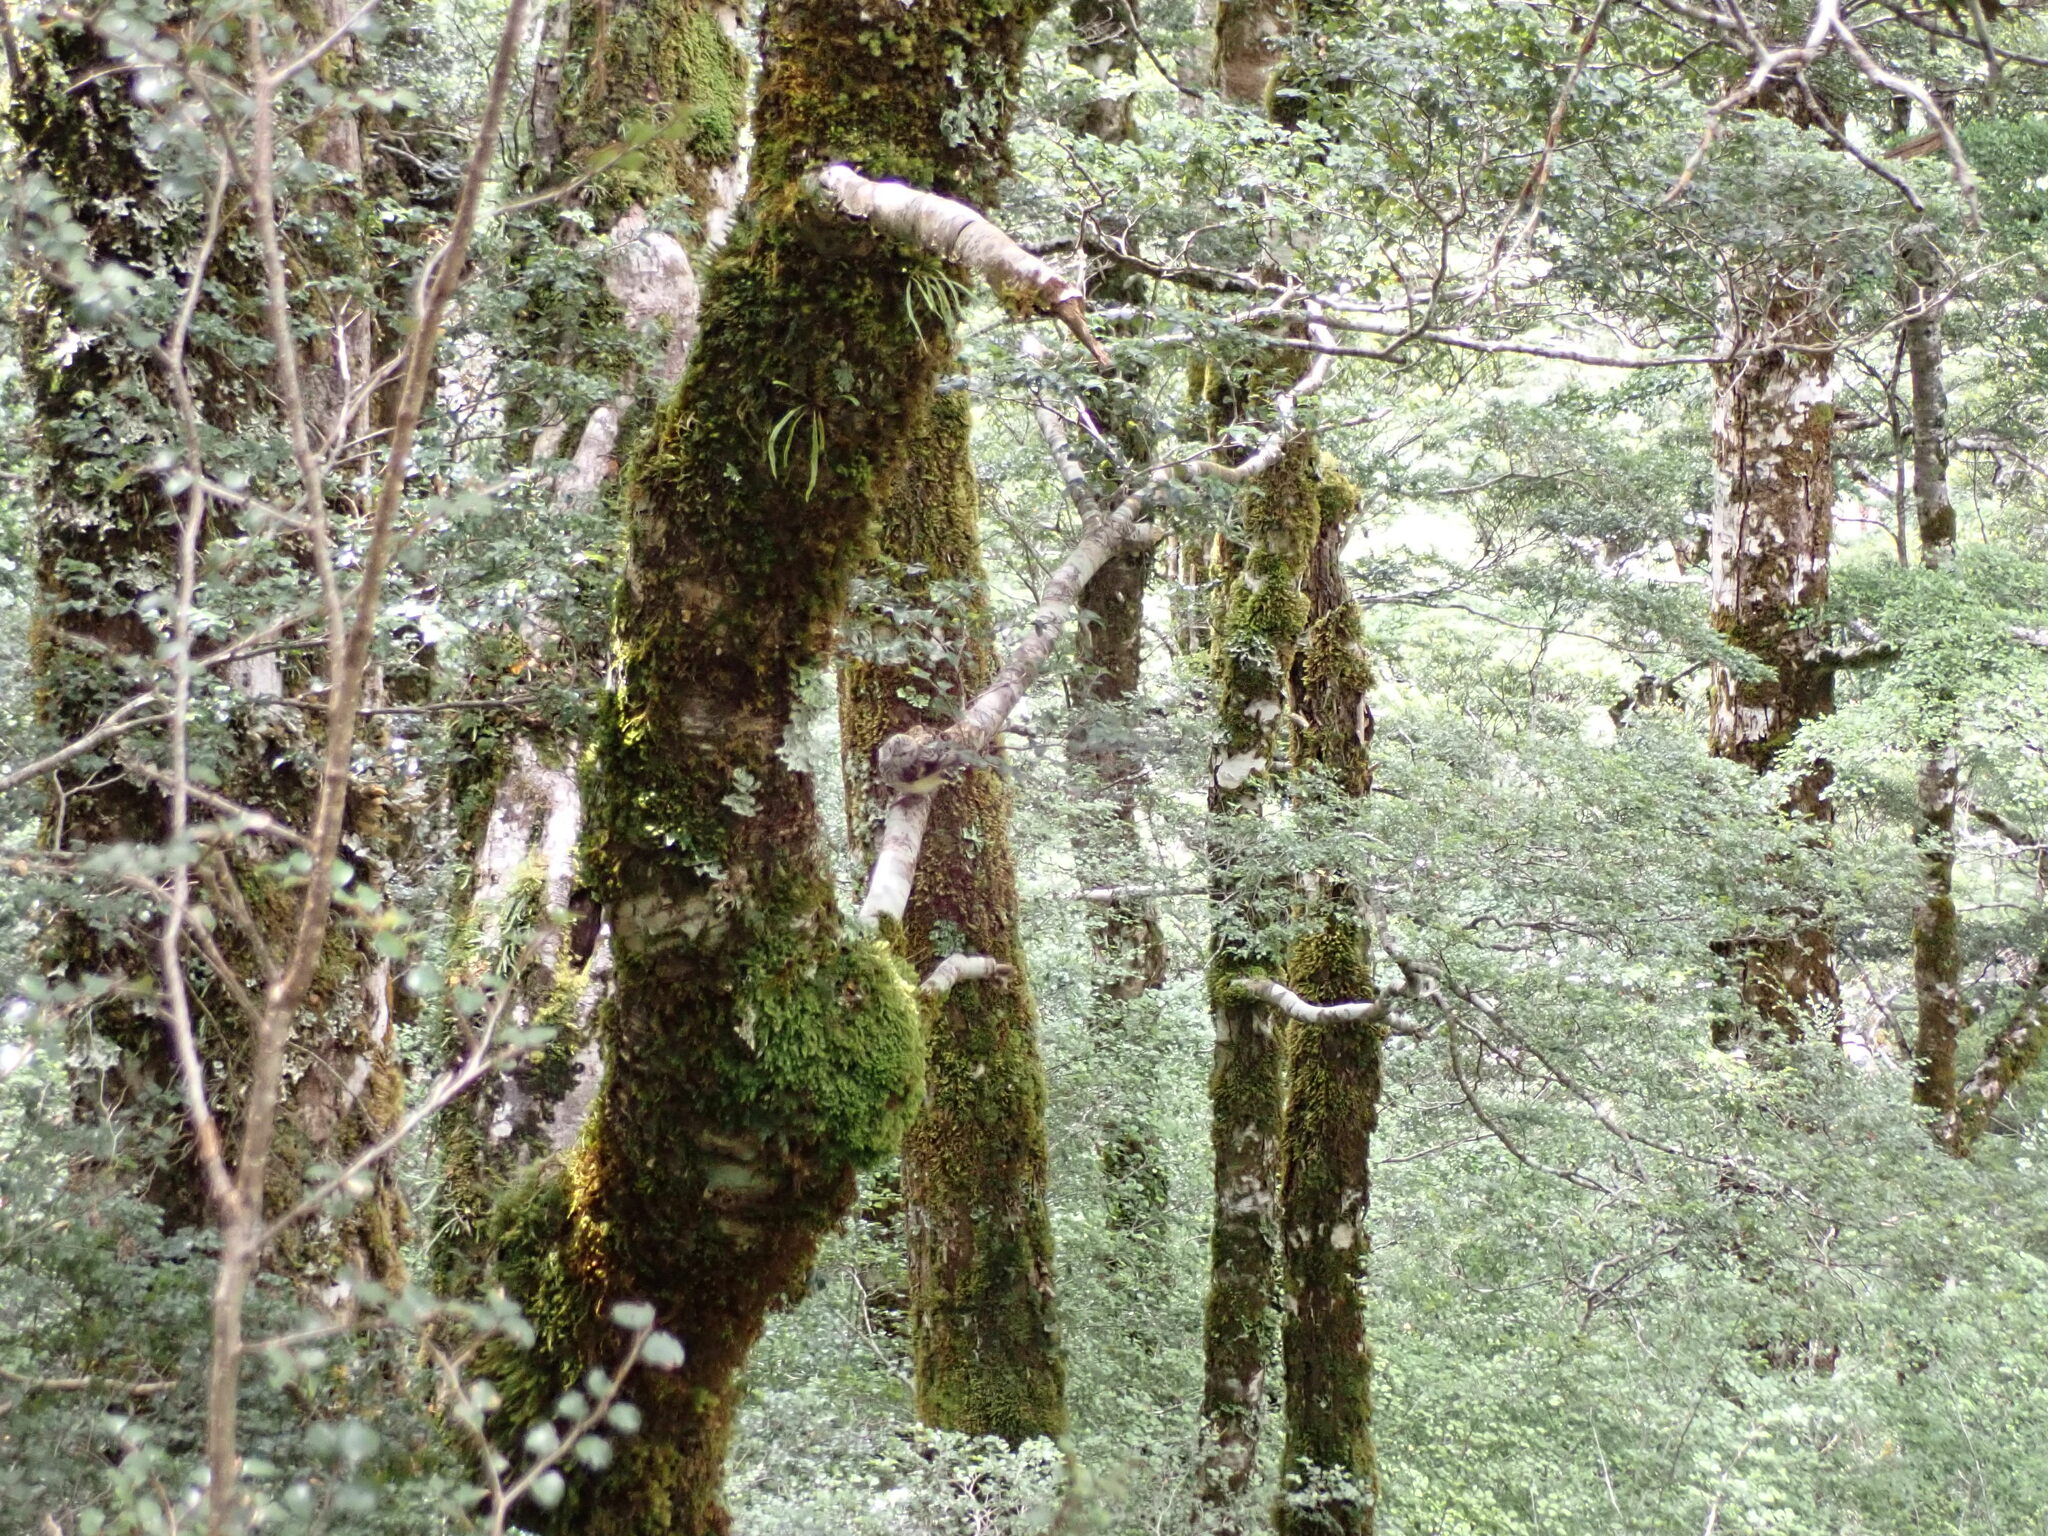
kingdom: Animalia
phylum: Chordata
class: Aves
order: Passeriformes
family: Acanthisittidae
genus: Acanthisitta
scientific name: Acanthisitta chloris
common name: Rifleman
